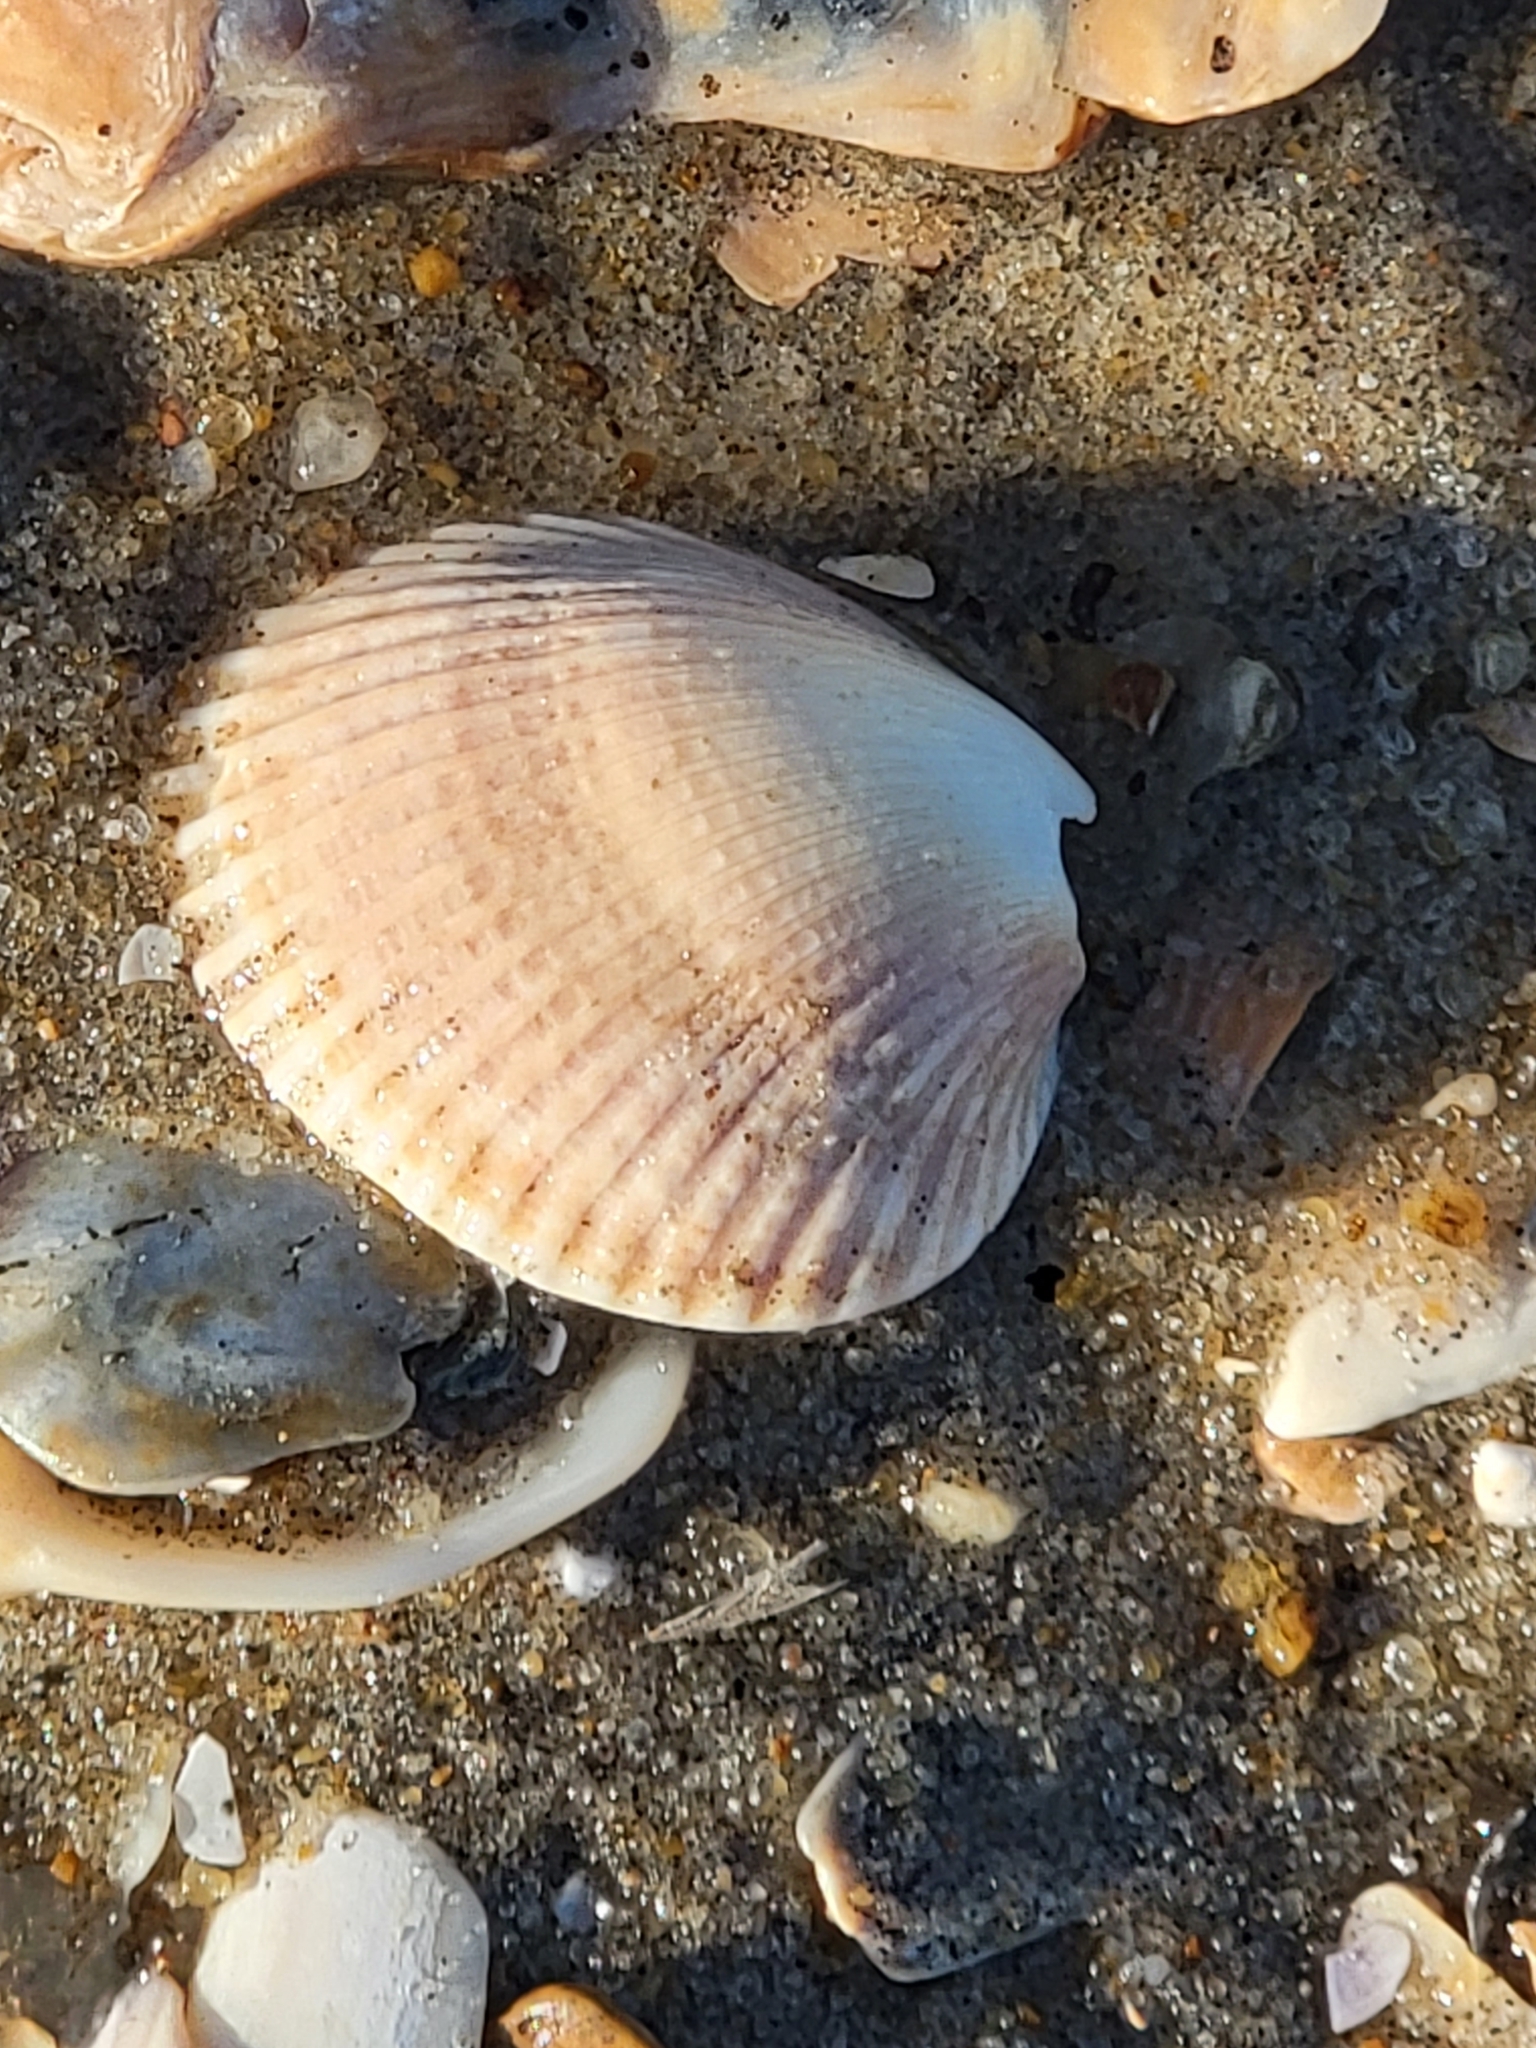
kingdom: Animalia
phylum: Mollusca
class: Bivalvia
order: Arcida
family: Arcidae
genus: Lunarca
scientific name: Lunarca ovalis
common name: Blood ark
